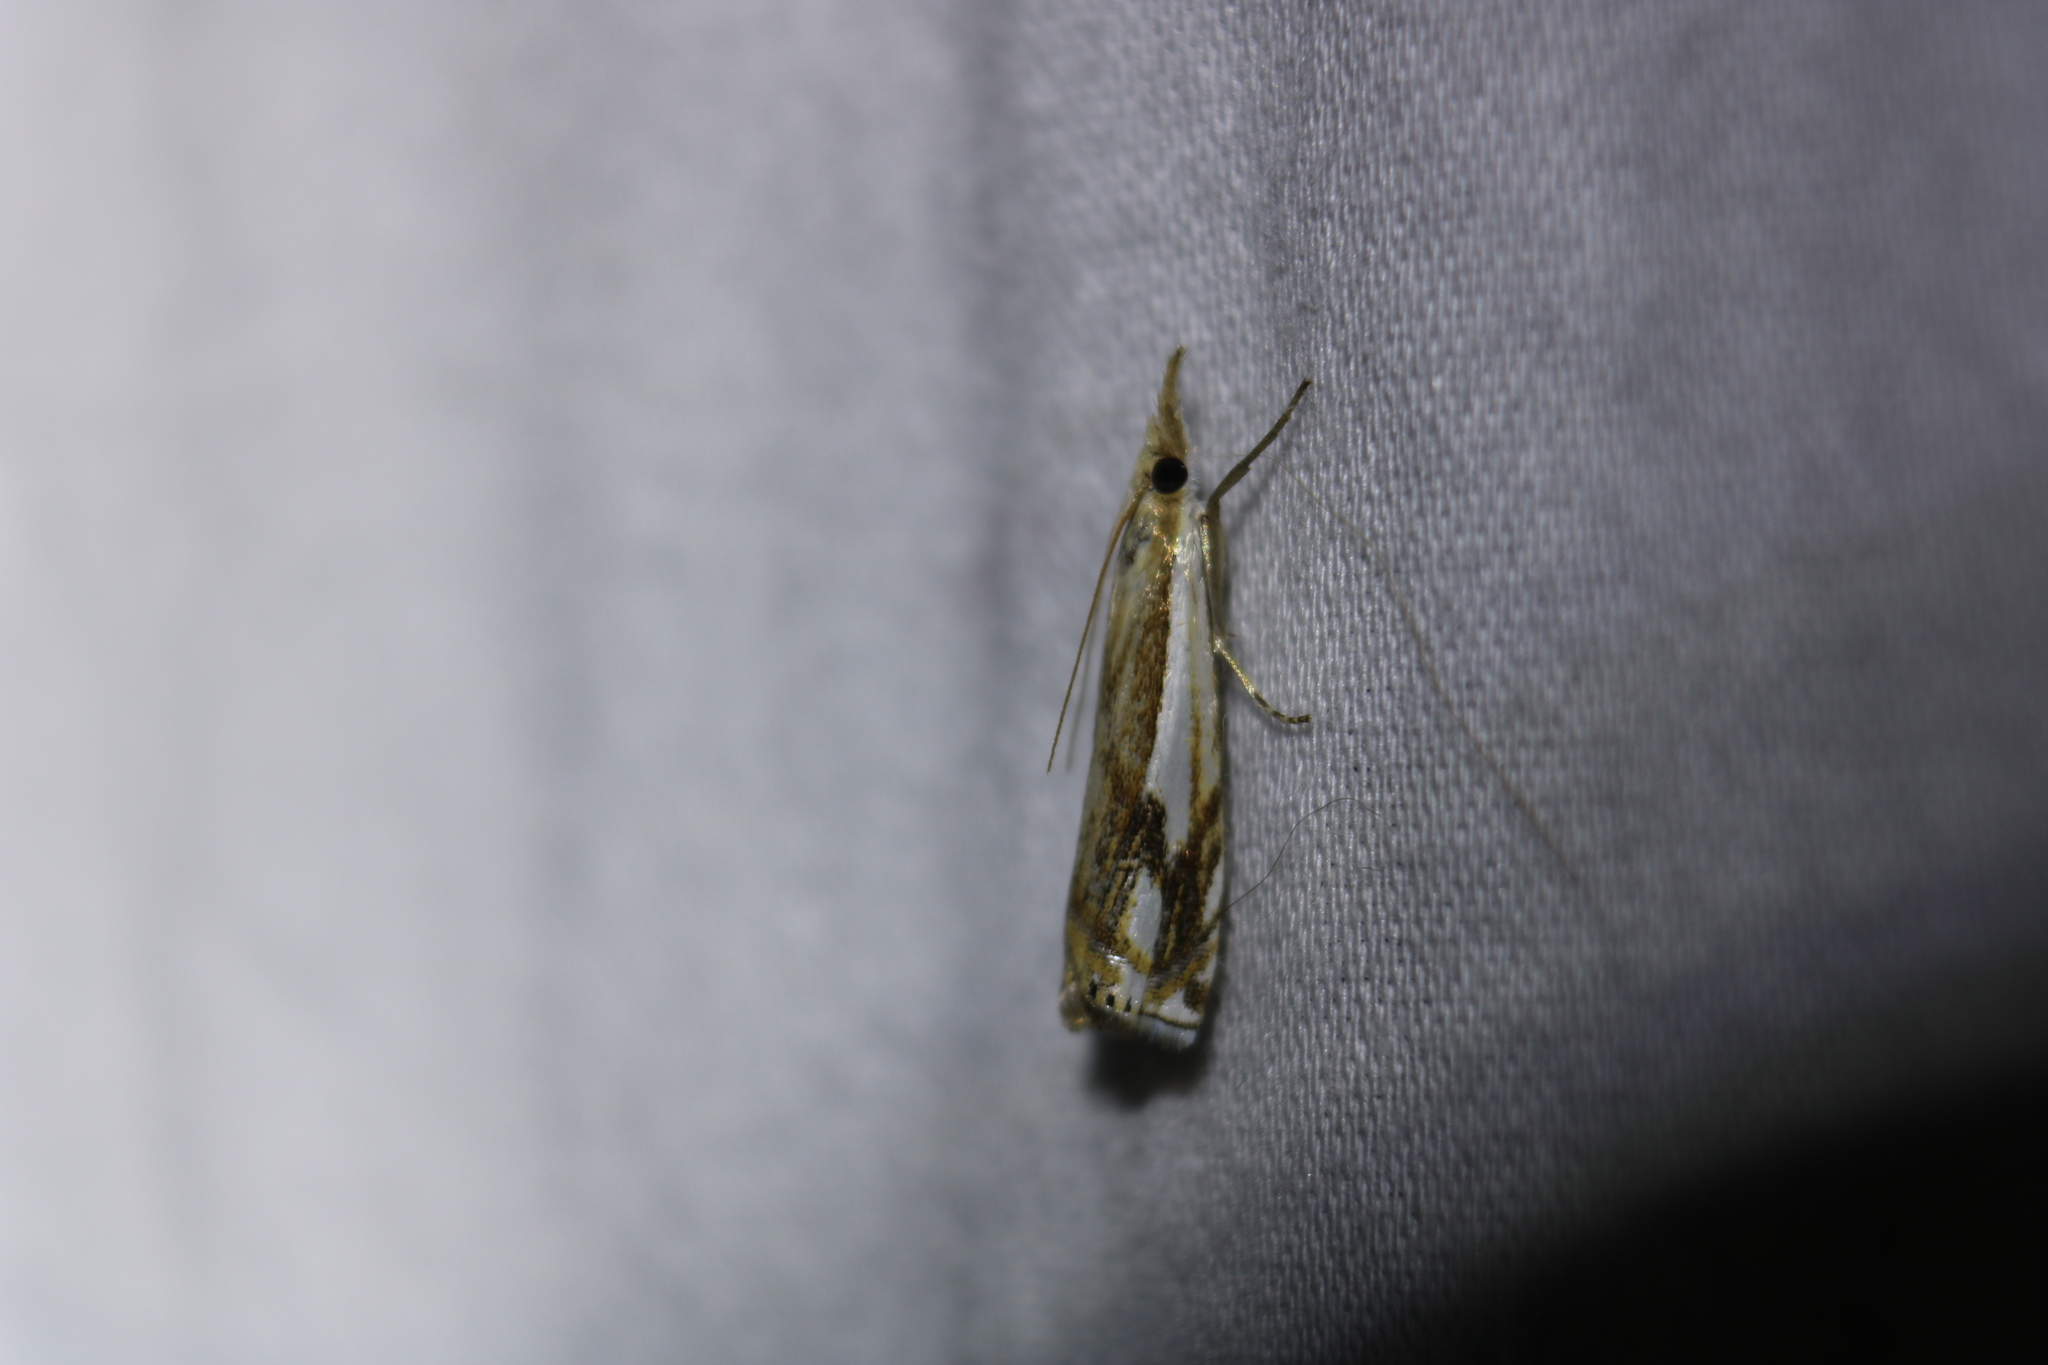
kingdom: Animalia
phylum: Arthropoda
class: Insecta
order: Lepidoptera
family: Crambidae
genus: Crambus
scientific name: Crambus agitatellus
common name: Double-banded grass-veneer
